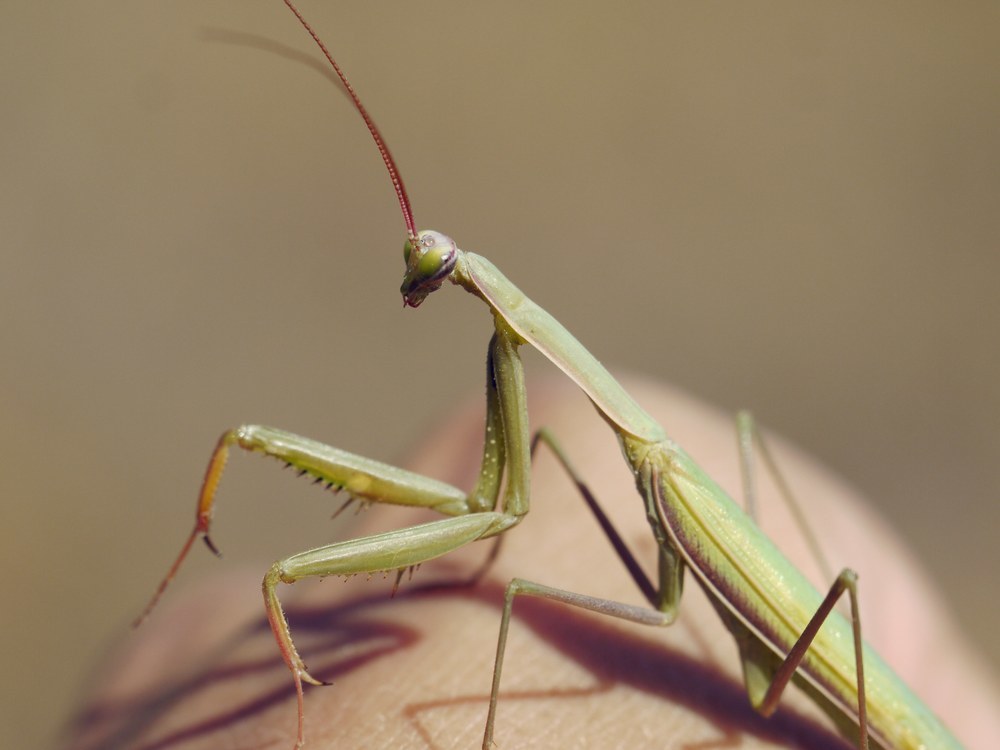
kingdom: Animalia
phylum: Arthropoda
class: Insecta
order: Mantodea
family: Mantidae
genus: Mantis
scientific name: Mantis religiosa
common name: Praying mantis
